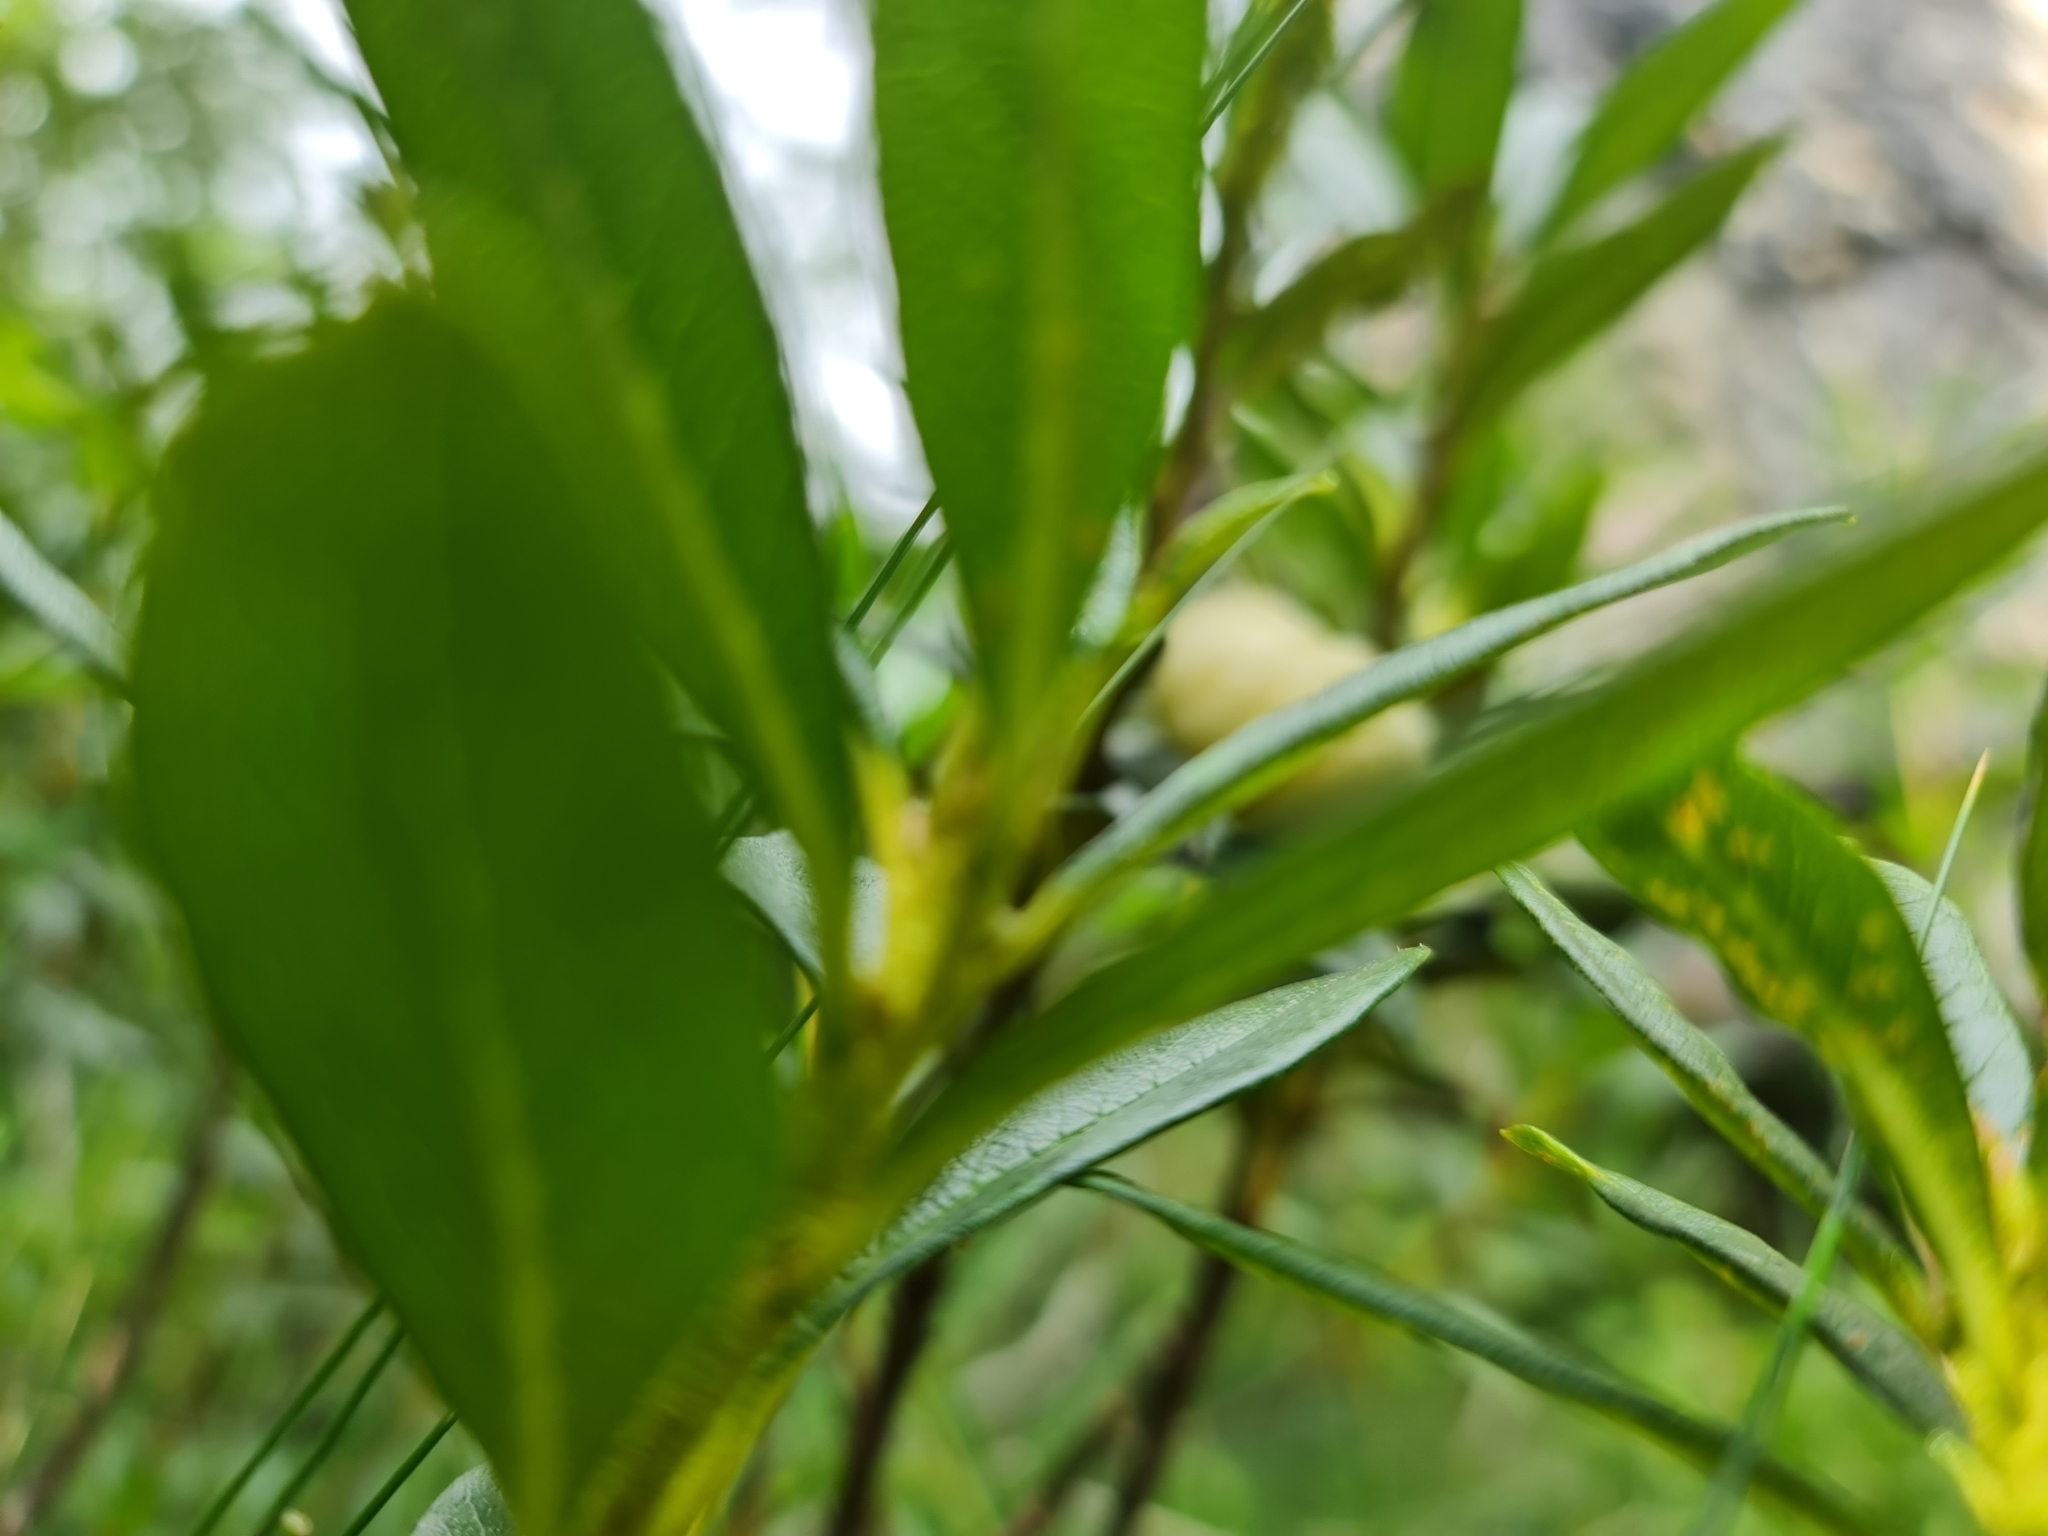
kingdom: Fungi
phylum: Basidiomycota
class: Exobasidiomycetes
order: Exobasidiales
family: Exobasidiaceae
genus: Exobasidium
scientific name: Exobasidium rhododendri
